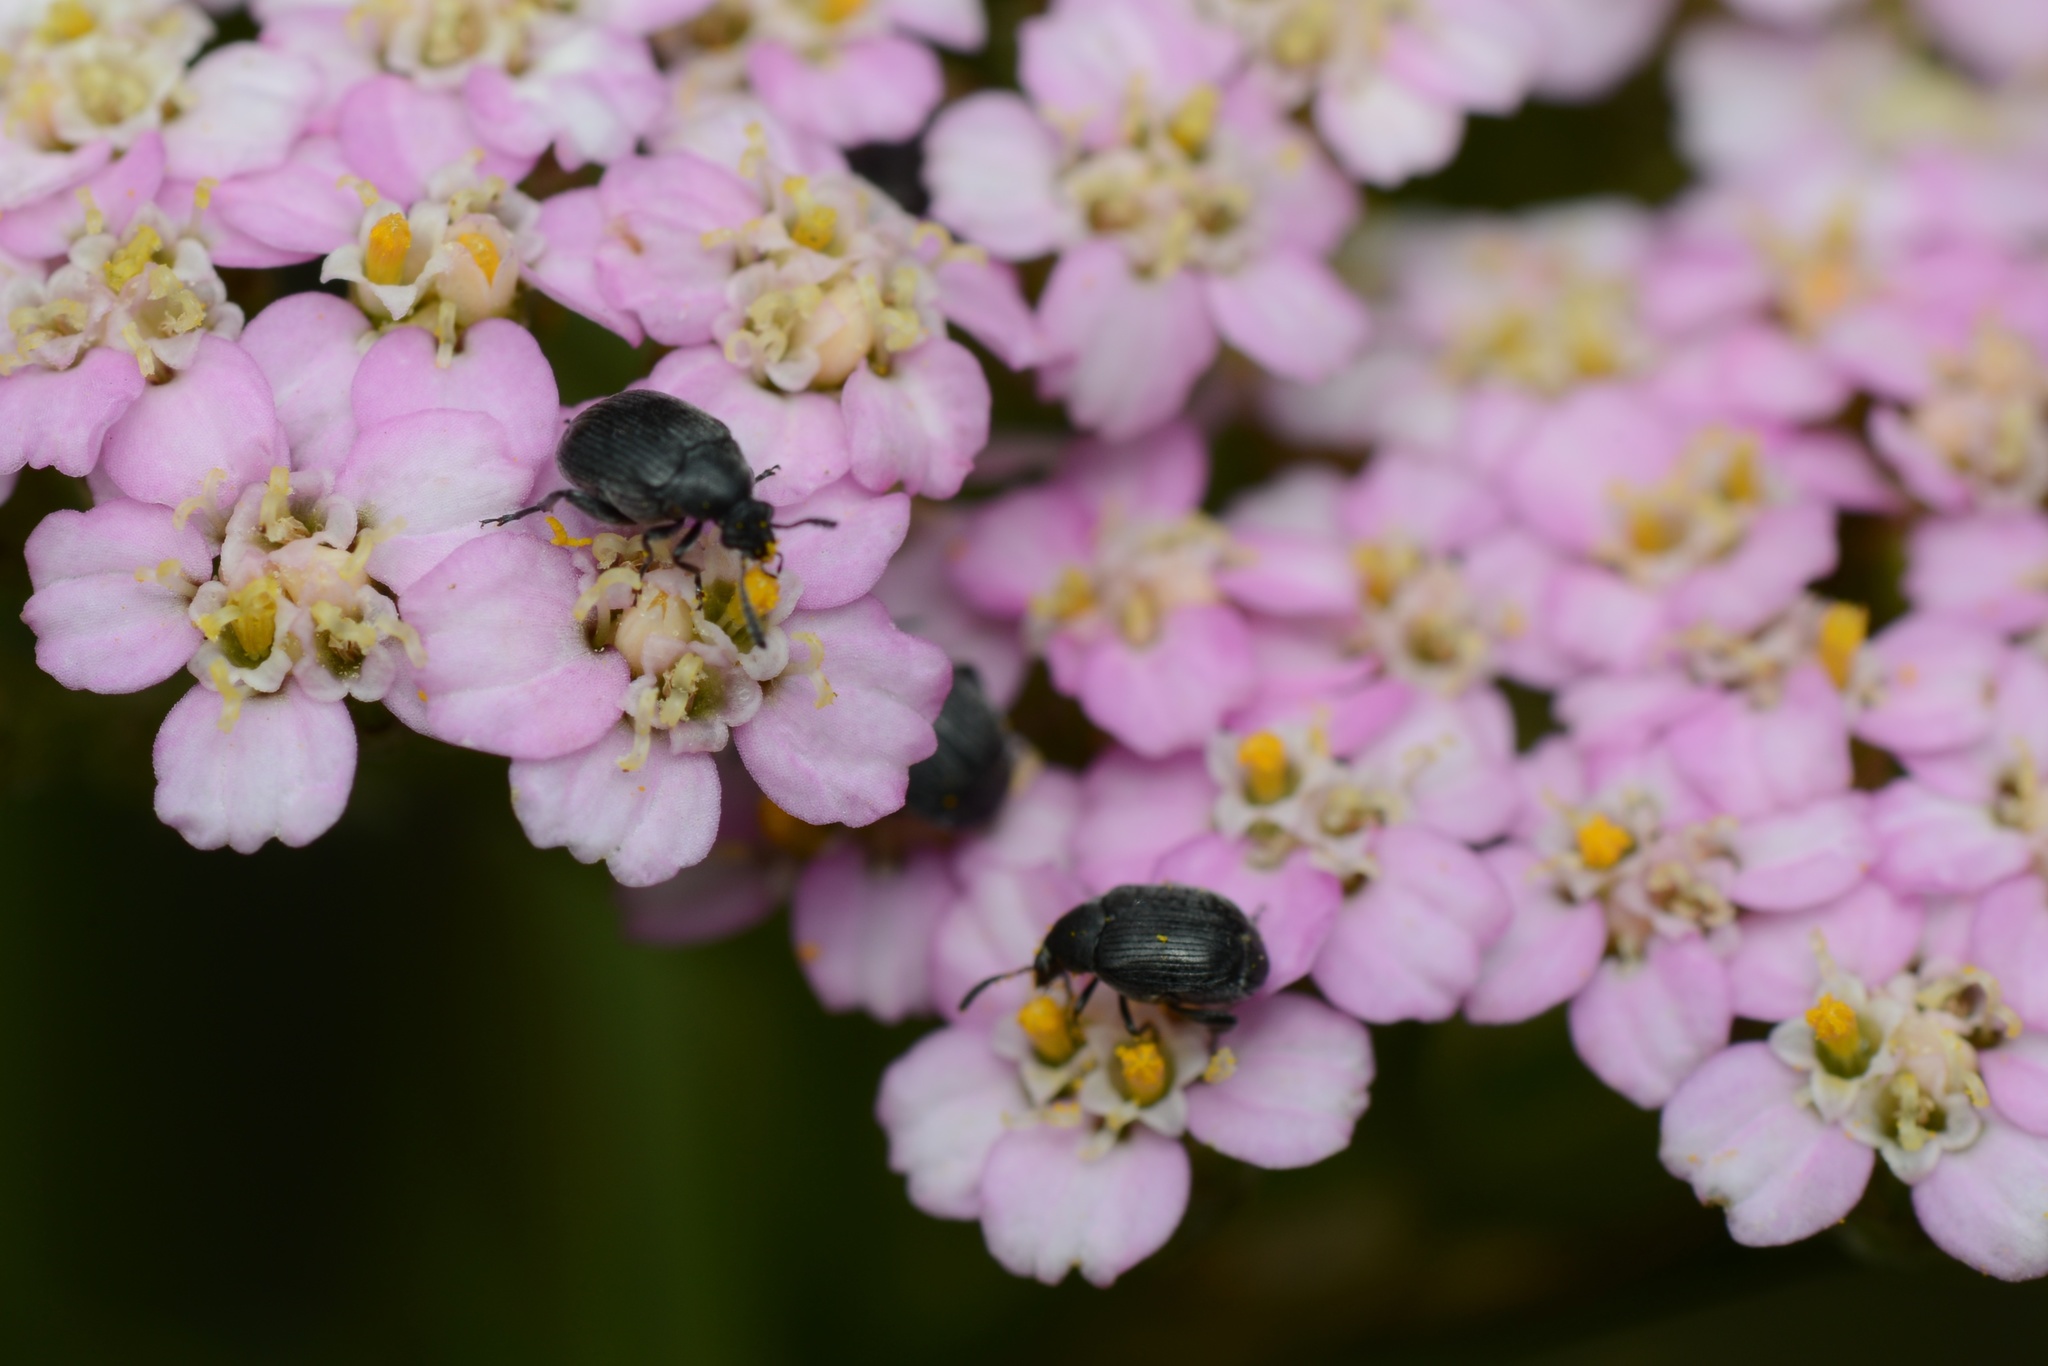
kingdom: Animalia
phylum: Arthropoda
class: Insecta
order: Coleoptera
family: Chrysomelidae
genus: Bruchidius
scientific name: Bruchidius villosus
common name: Scotch broom bruchid
